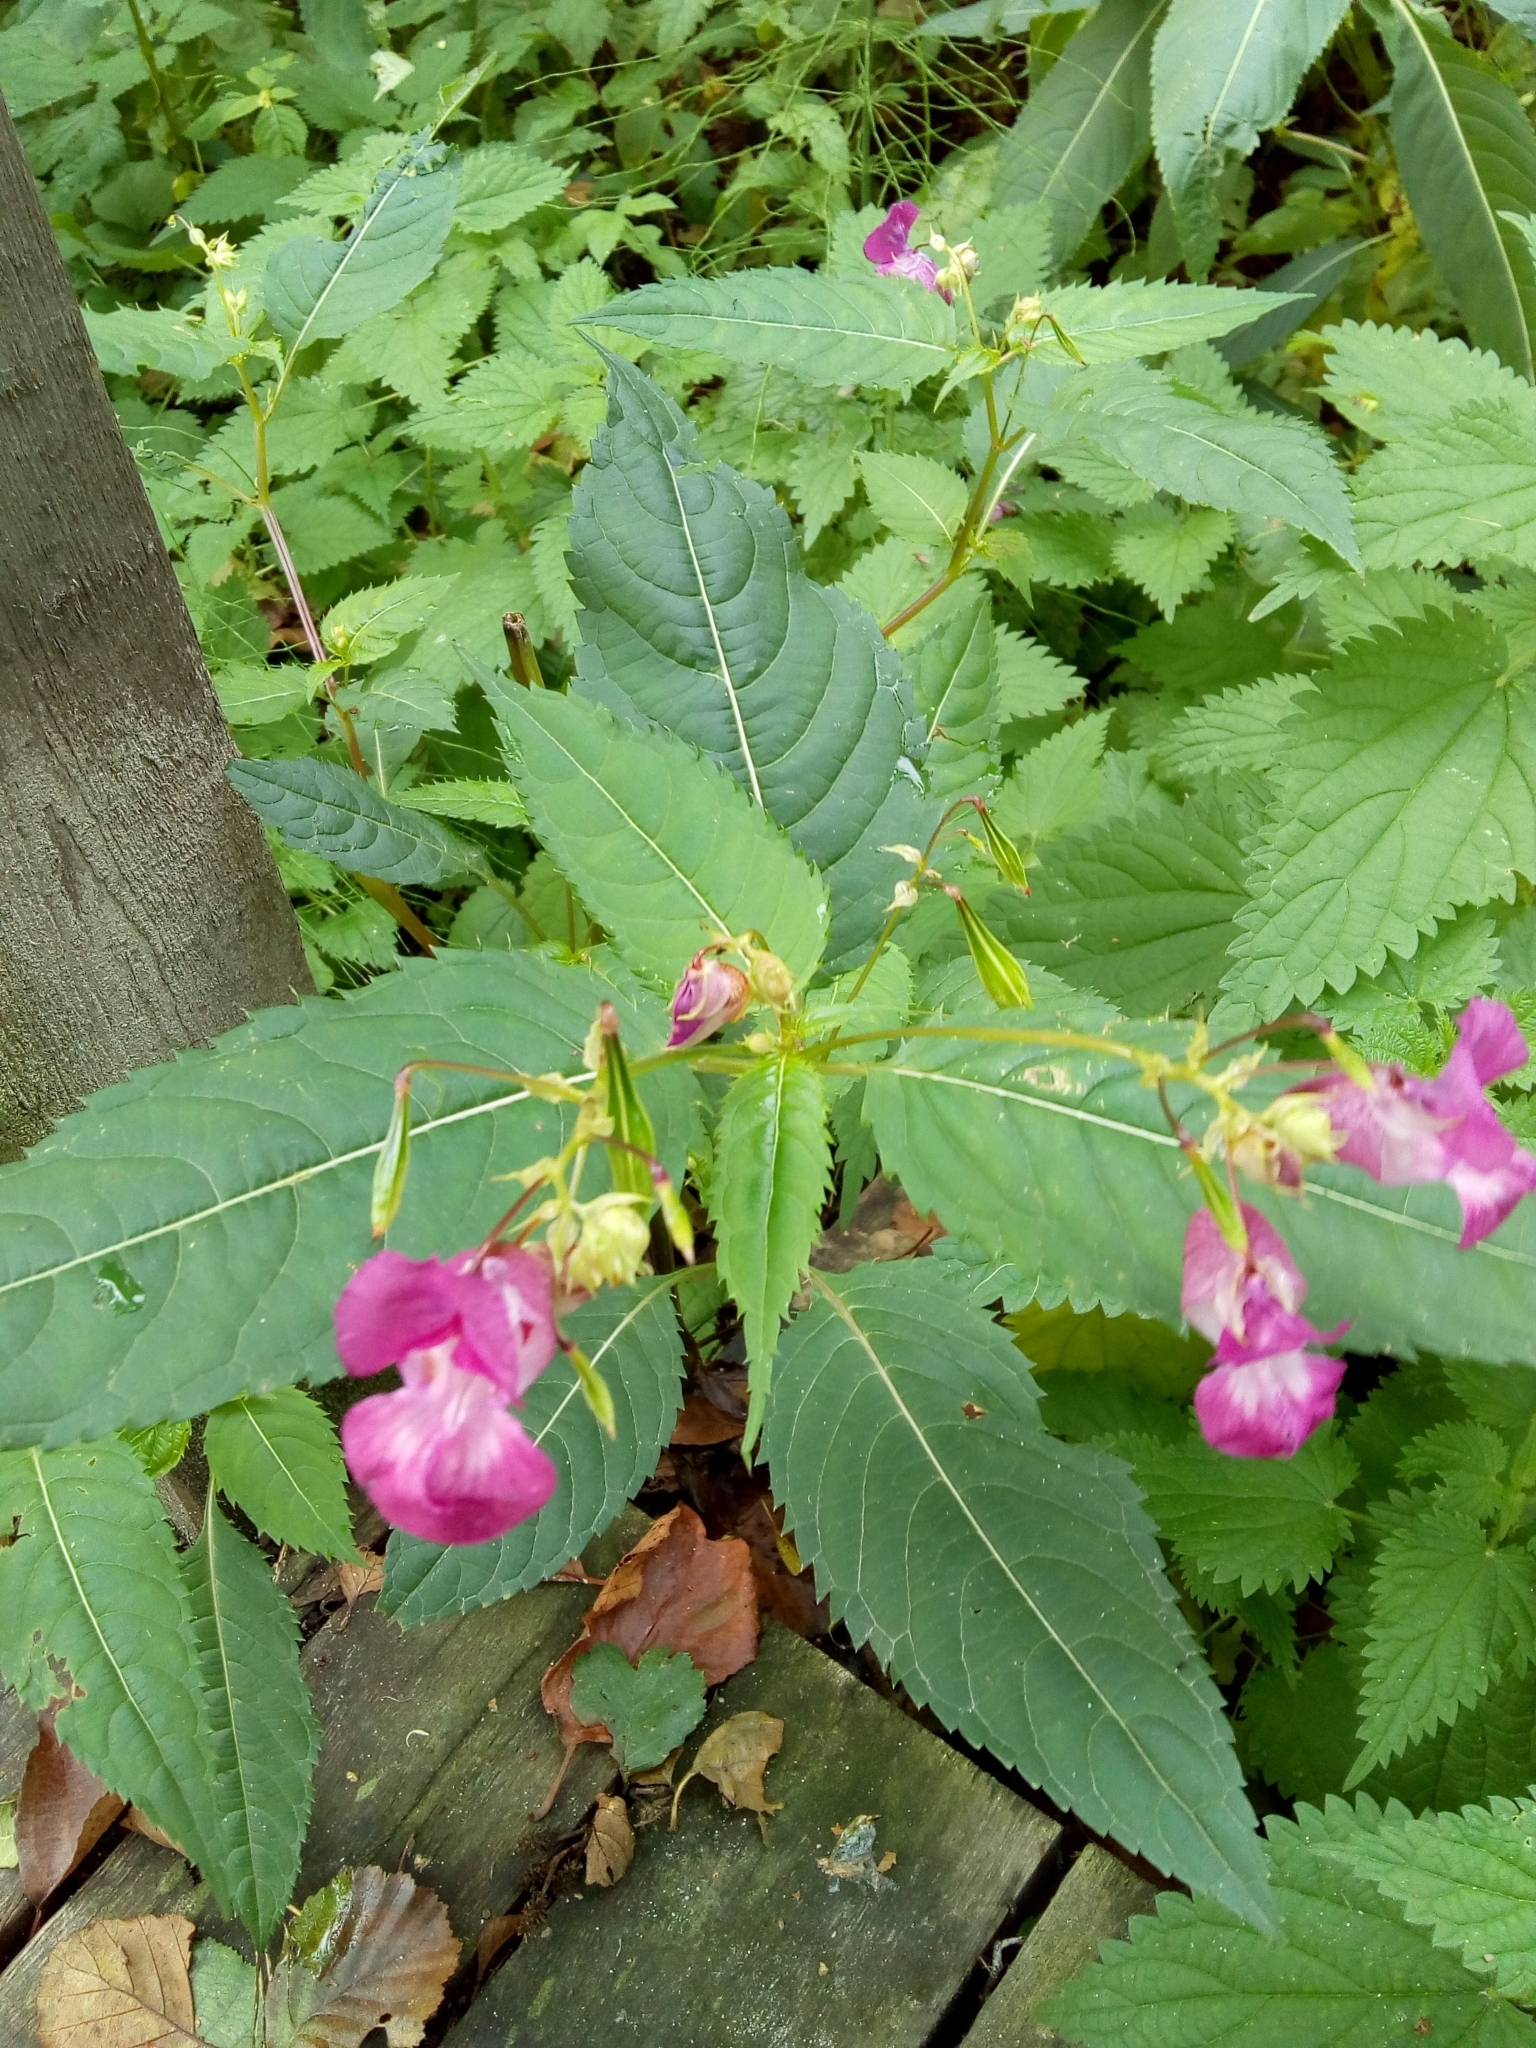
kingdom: Plantae
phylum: Tracheophyta
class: Magnoliopsida
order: Ericales
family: Balsaminaceae
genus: Impatiens
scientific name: Impatiens glandulifera
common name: Himalayan balsam
